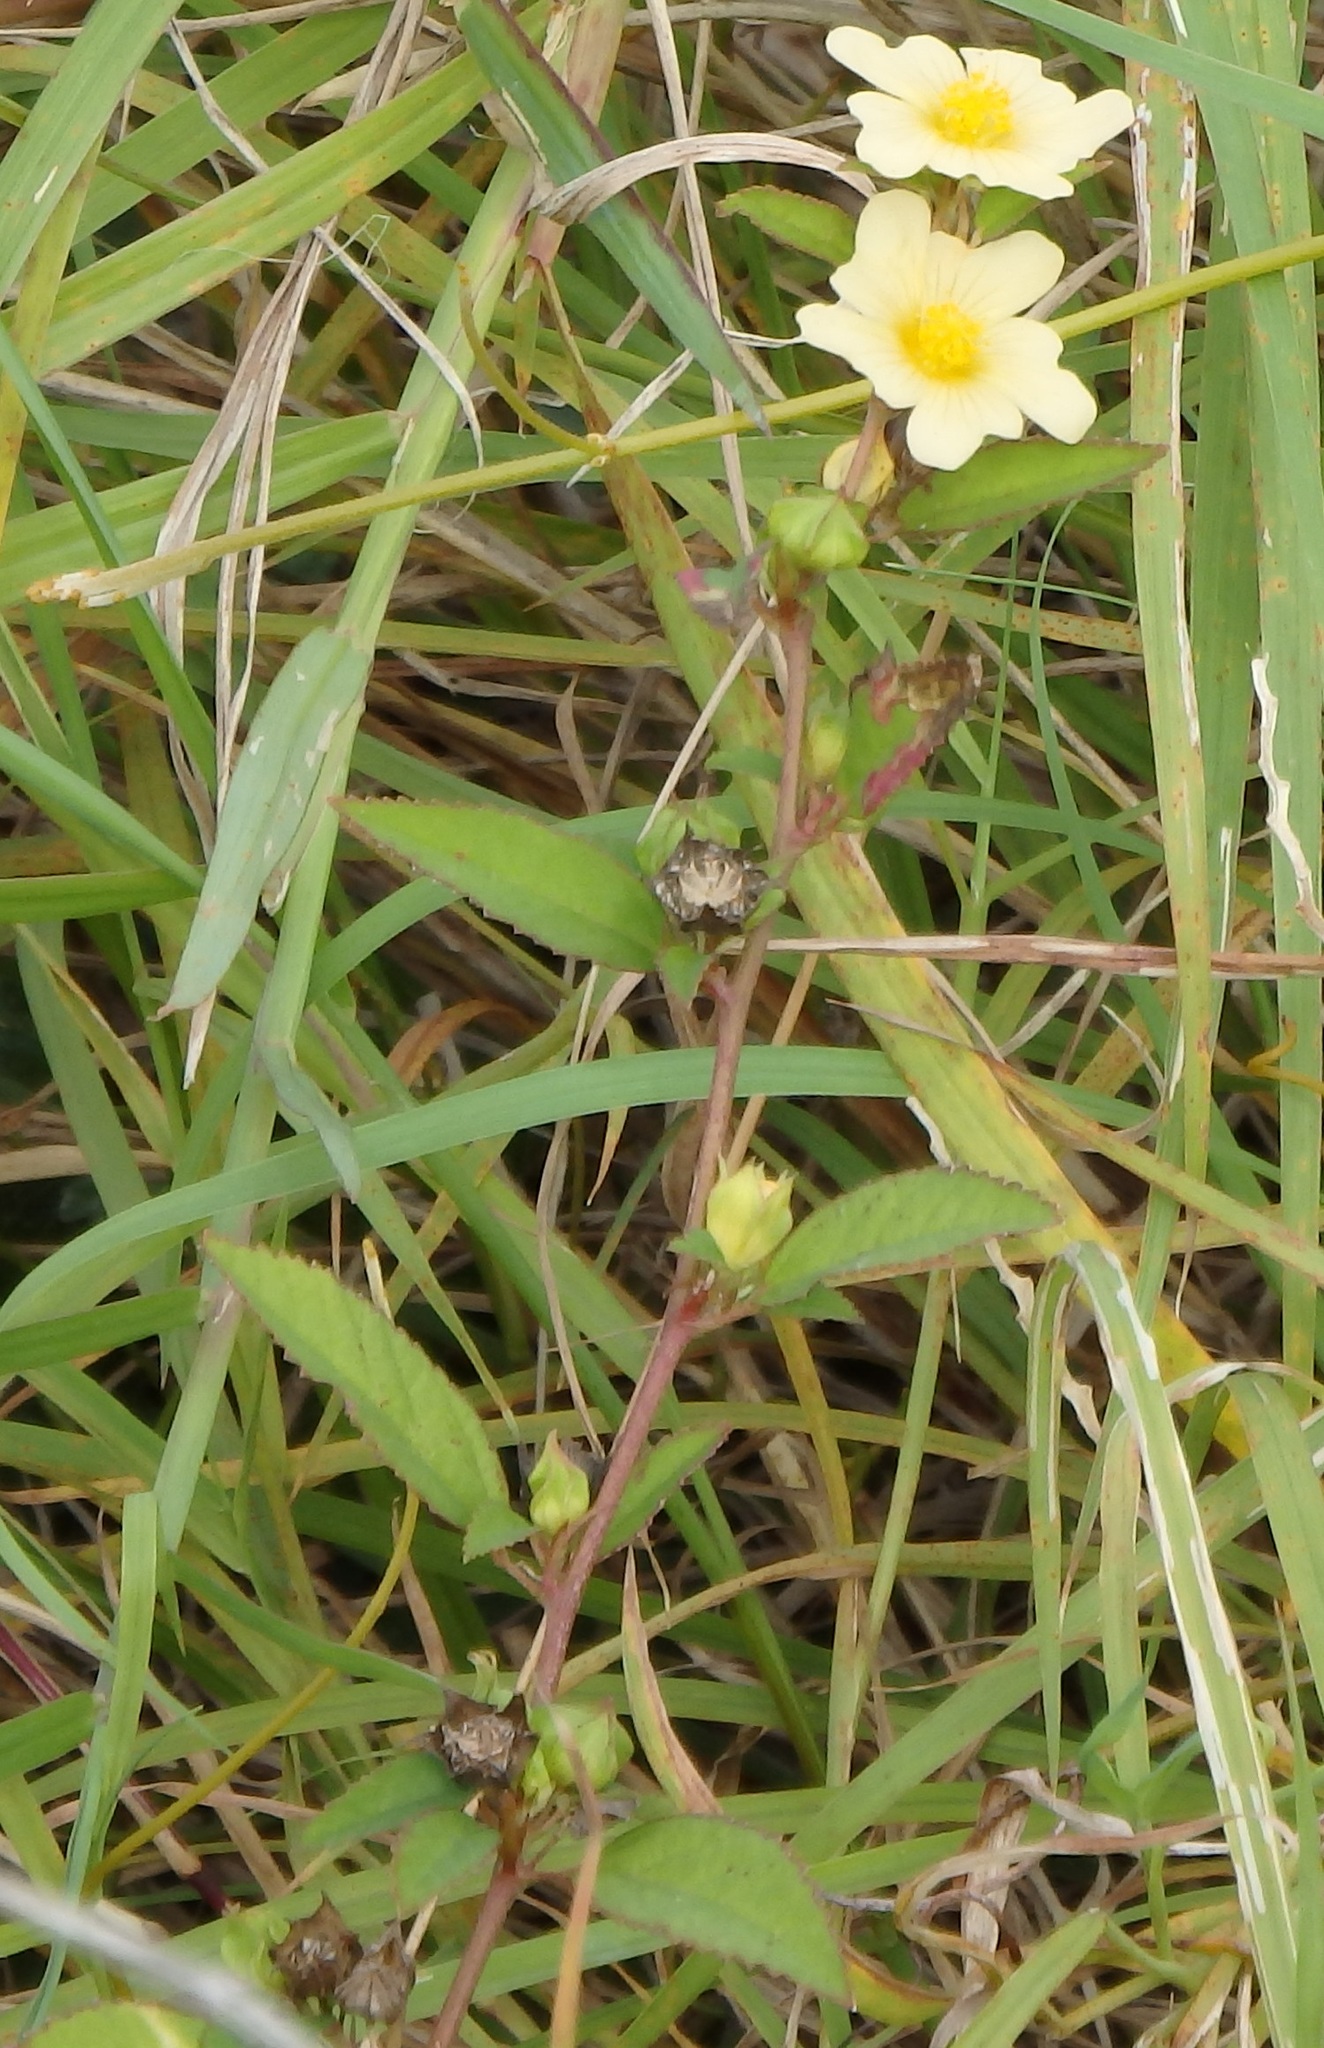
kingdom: Plantae
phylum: Tracheophyta
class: Magnoliopsida
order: Malvales
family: Malvaceae
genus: Sida
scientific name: Sida rhombifolia
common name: Queensland-hemp
